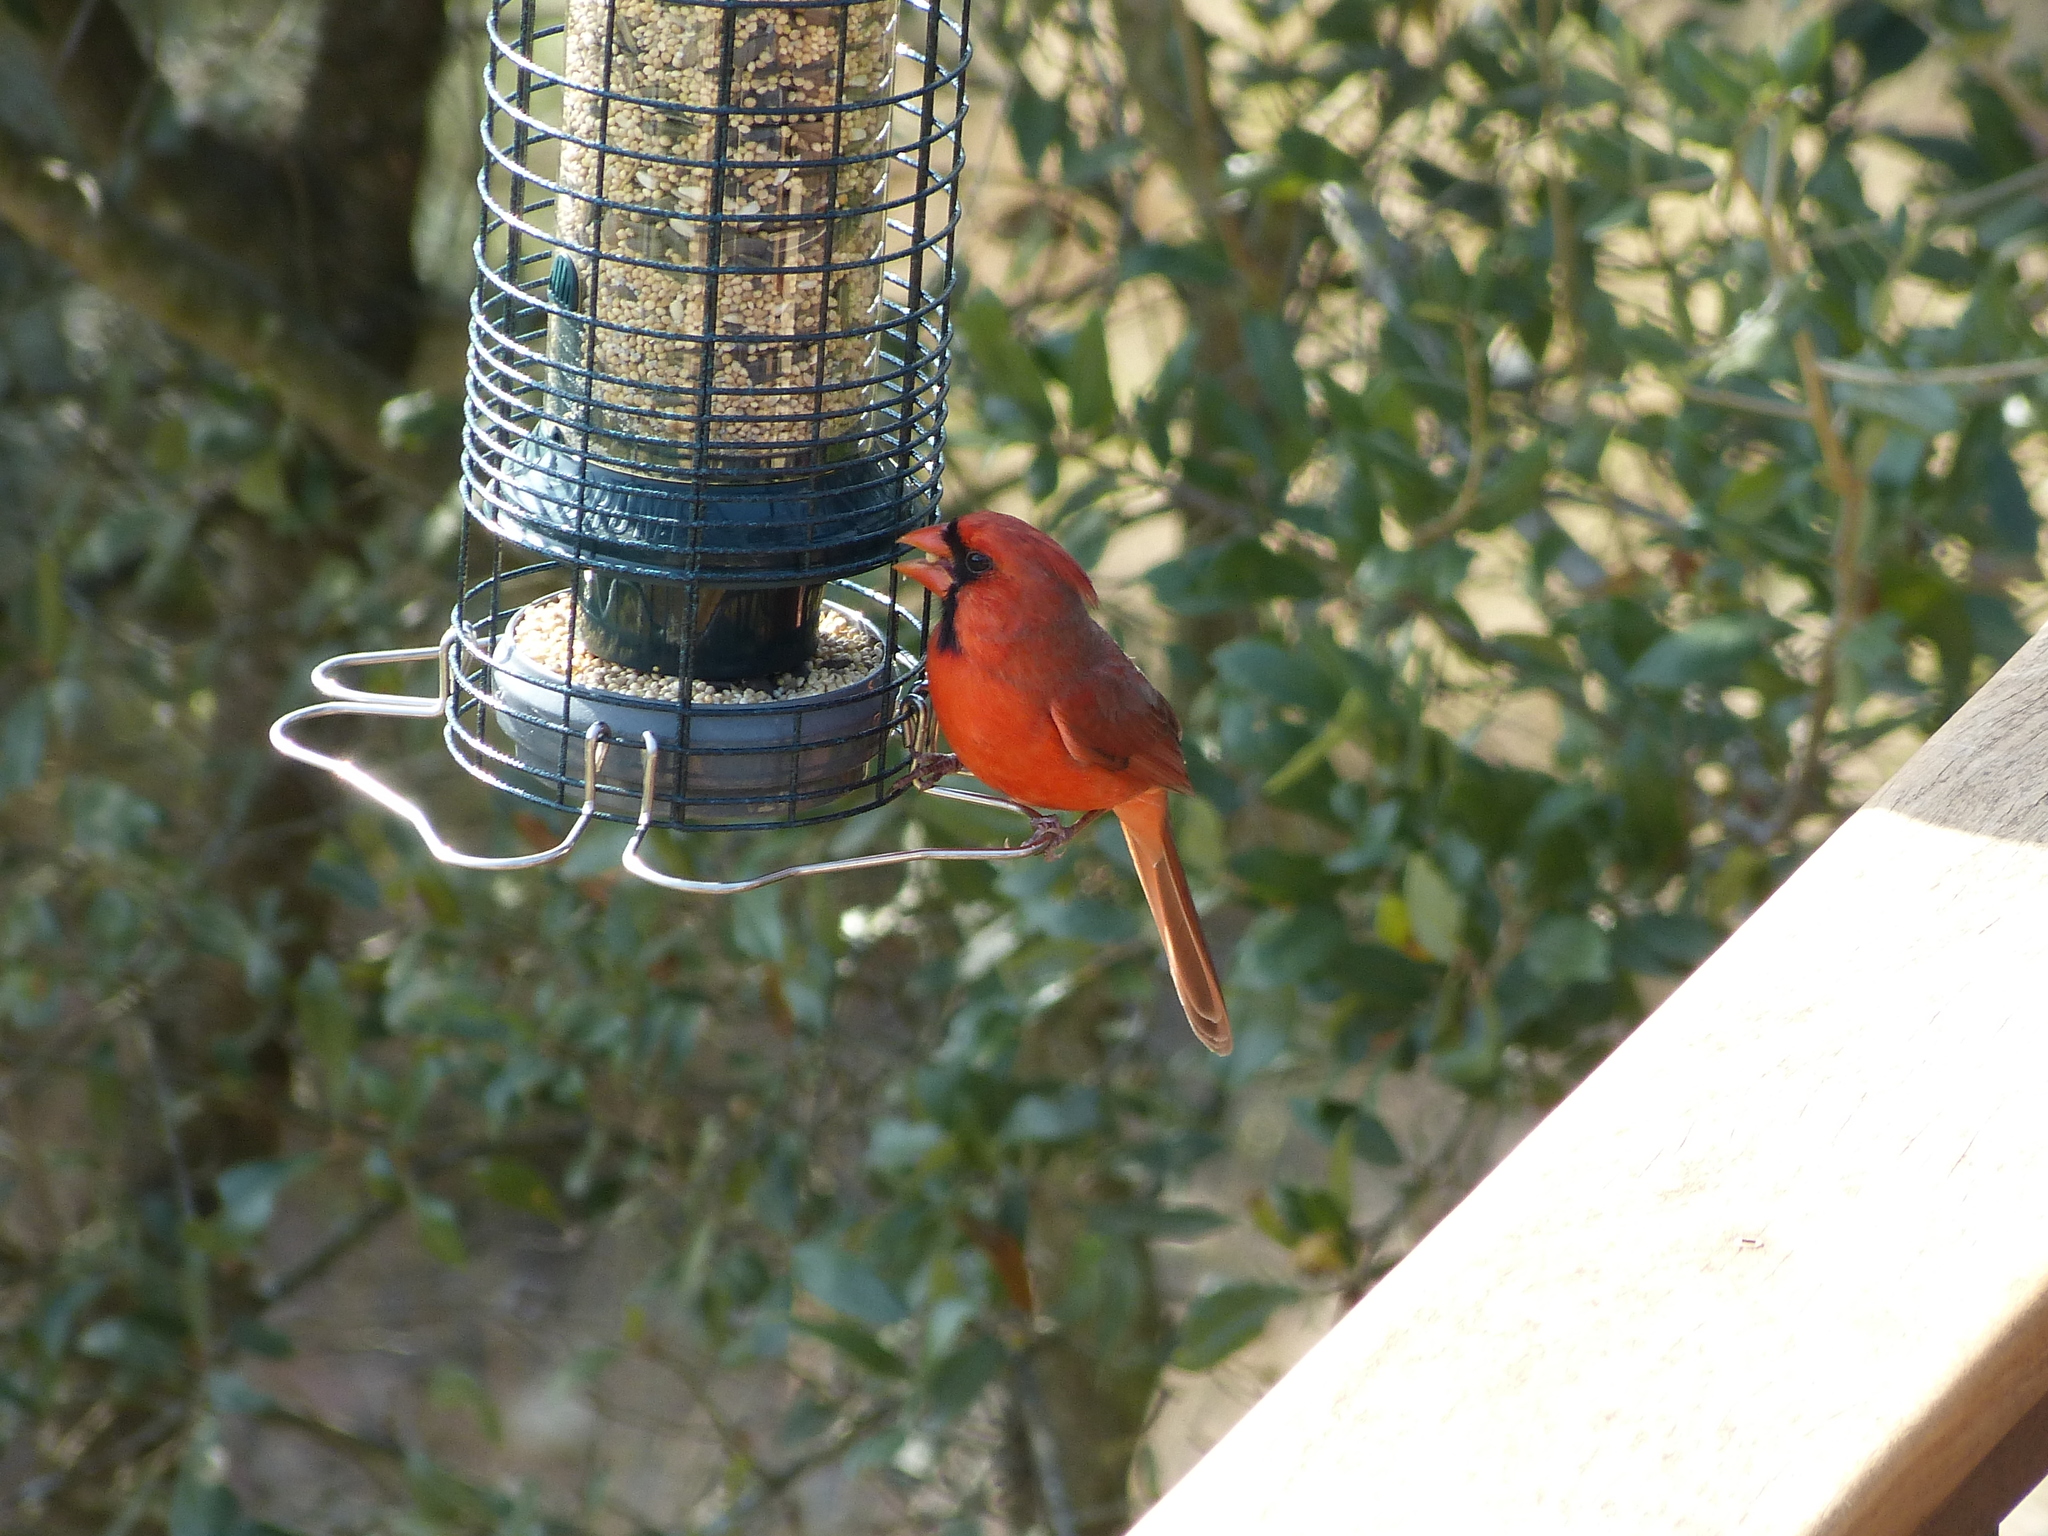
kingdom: Animalia
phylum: Chordata
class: Aves
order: Passeriformes
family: Cardinalidae
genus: Cardinalis
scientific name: Cardinalis cardinalis
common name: Northern cardinal
